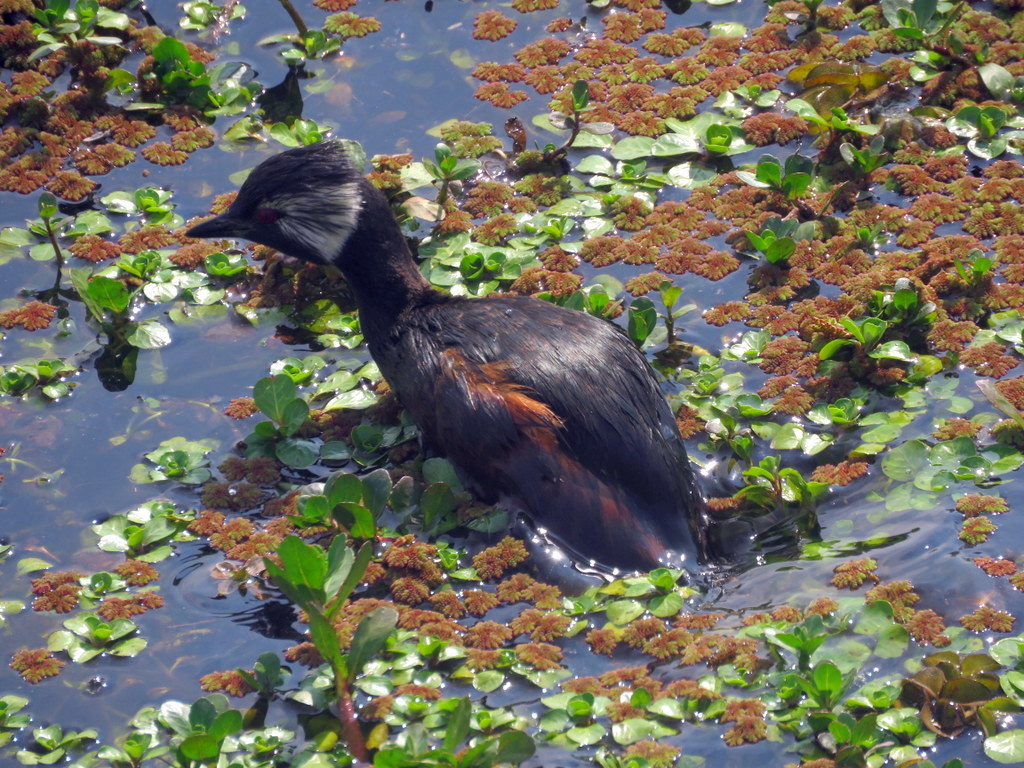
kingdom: Animalia
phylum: Chordata
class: Aves
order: Podicipediformes
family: Podicipedidae
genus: Rollandia
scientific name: Rollandia rolland
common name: White-tufted grebe
